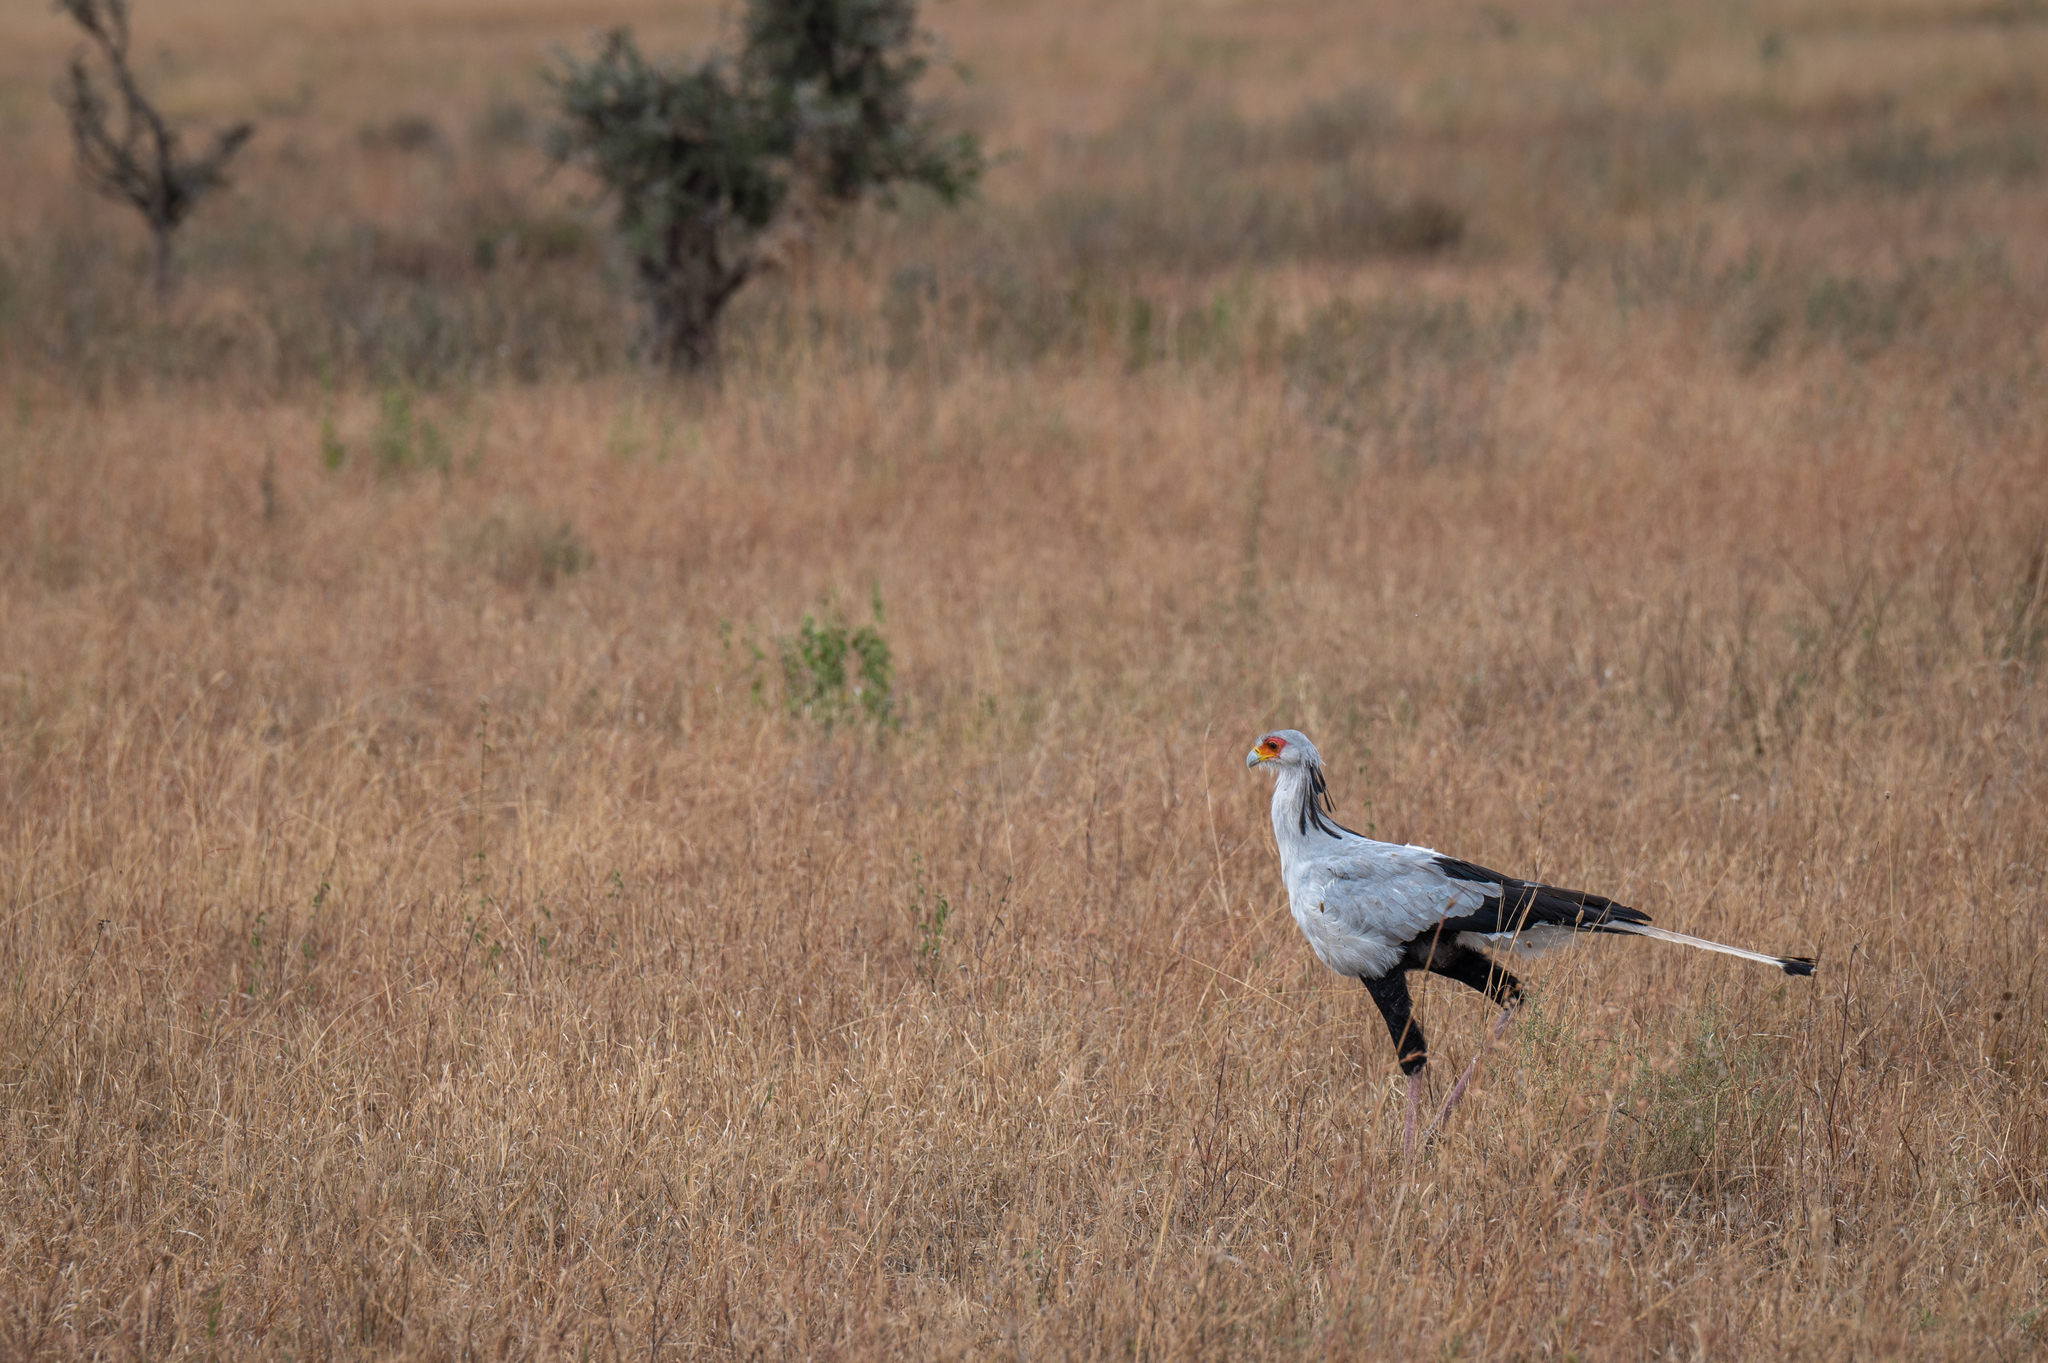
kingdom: Animalia
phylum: Chordata
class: Aves
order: Accipitriformes
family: Sagittariidae
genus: Sagittarius
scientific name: Sagittarius serpentarius
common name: Secretarybird
